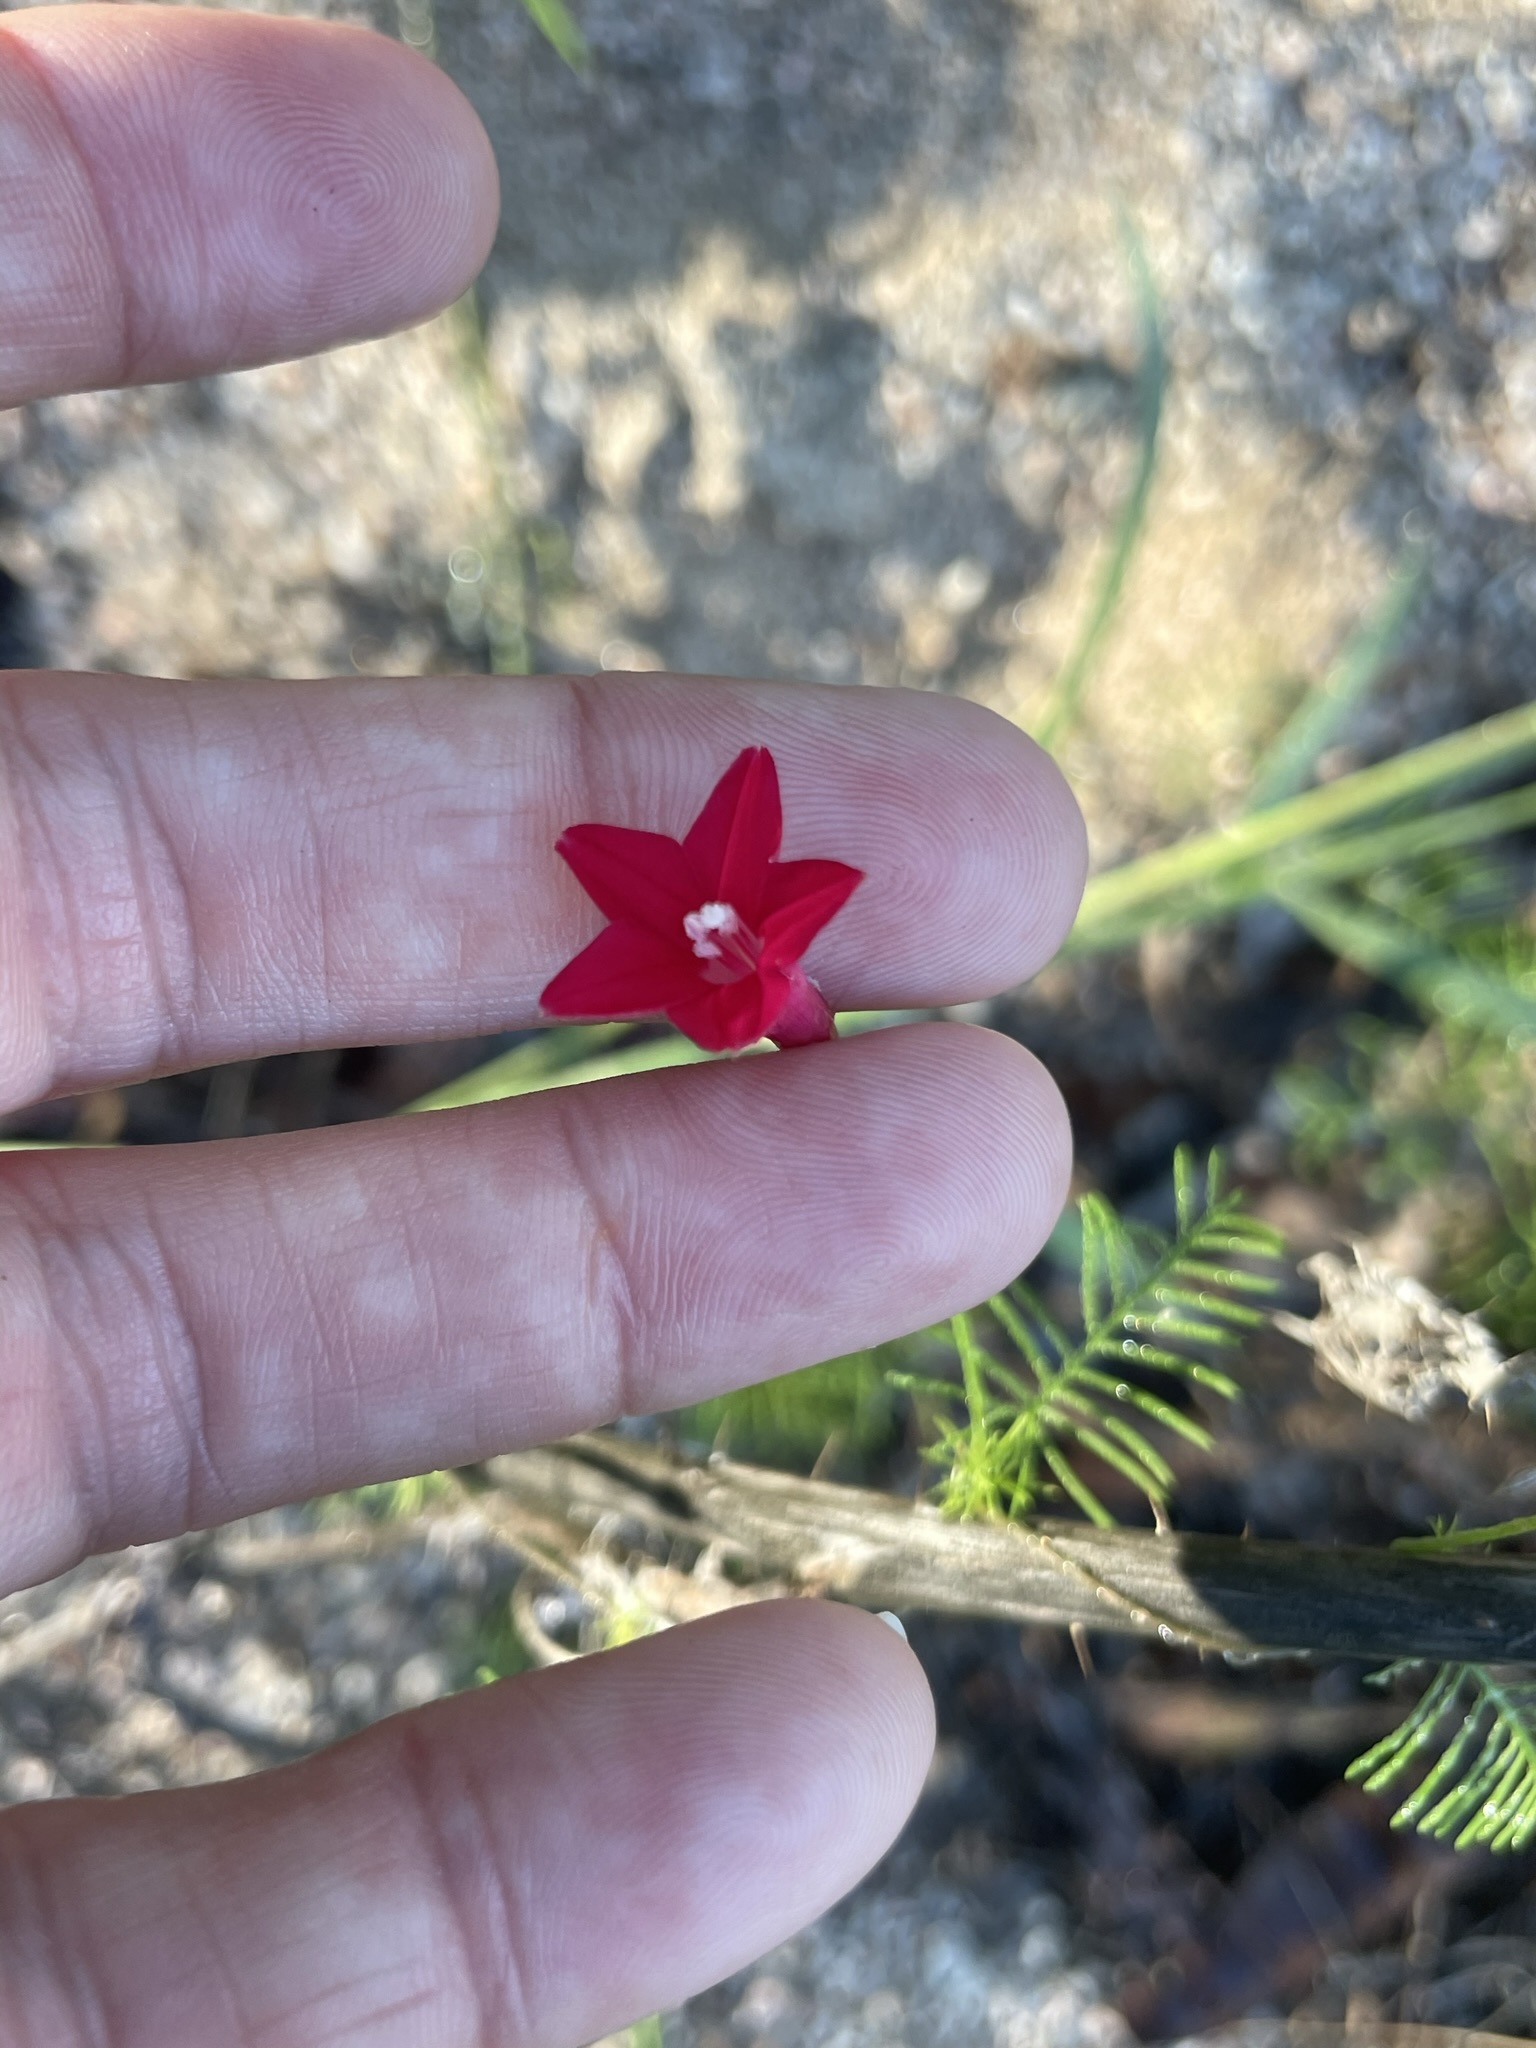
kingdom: Plantae
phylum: Tracheophyta
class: Magnoliopsida
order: Solanales
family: Convolvulaceae
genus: Ipomoea
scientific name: Ipomoea quamoclit
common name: Cypress vine
